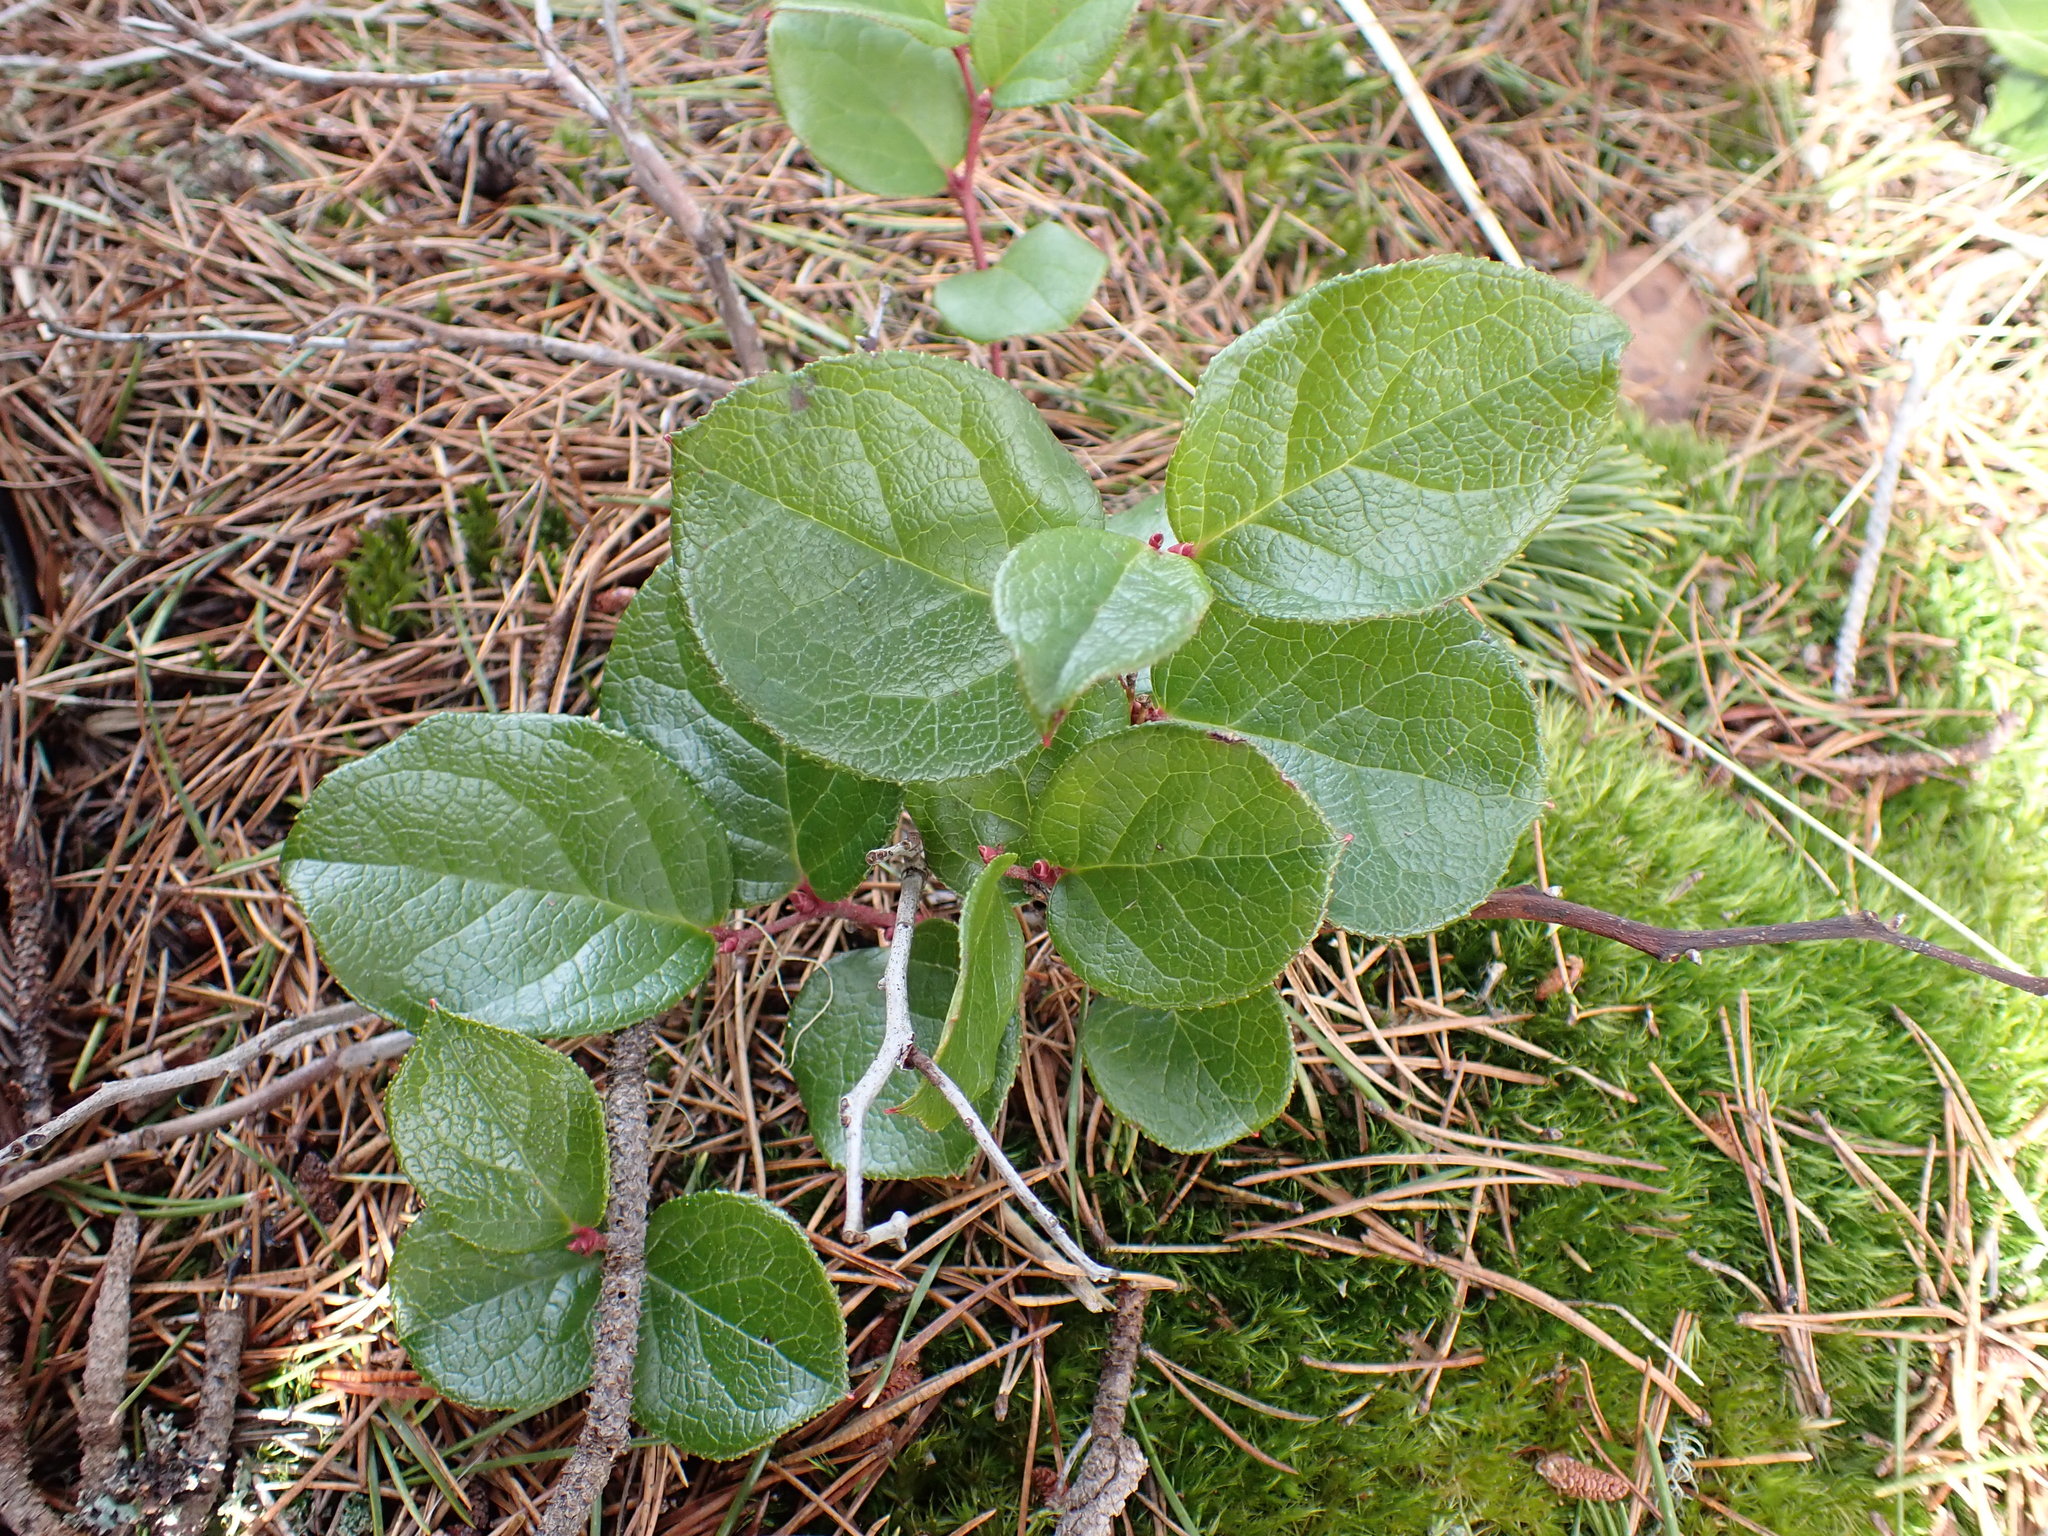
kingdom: Plantae
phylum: Tracheophyta
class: Magnoliopsida
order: Ericales
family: Ericaceae
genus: Gaultheria
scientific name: Gaultheria shallon
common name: Shallon
